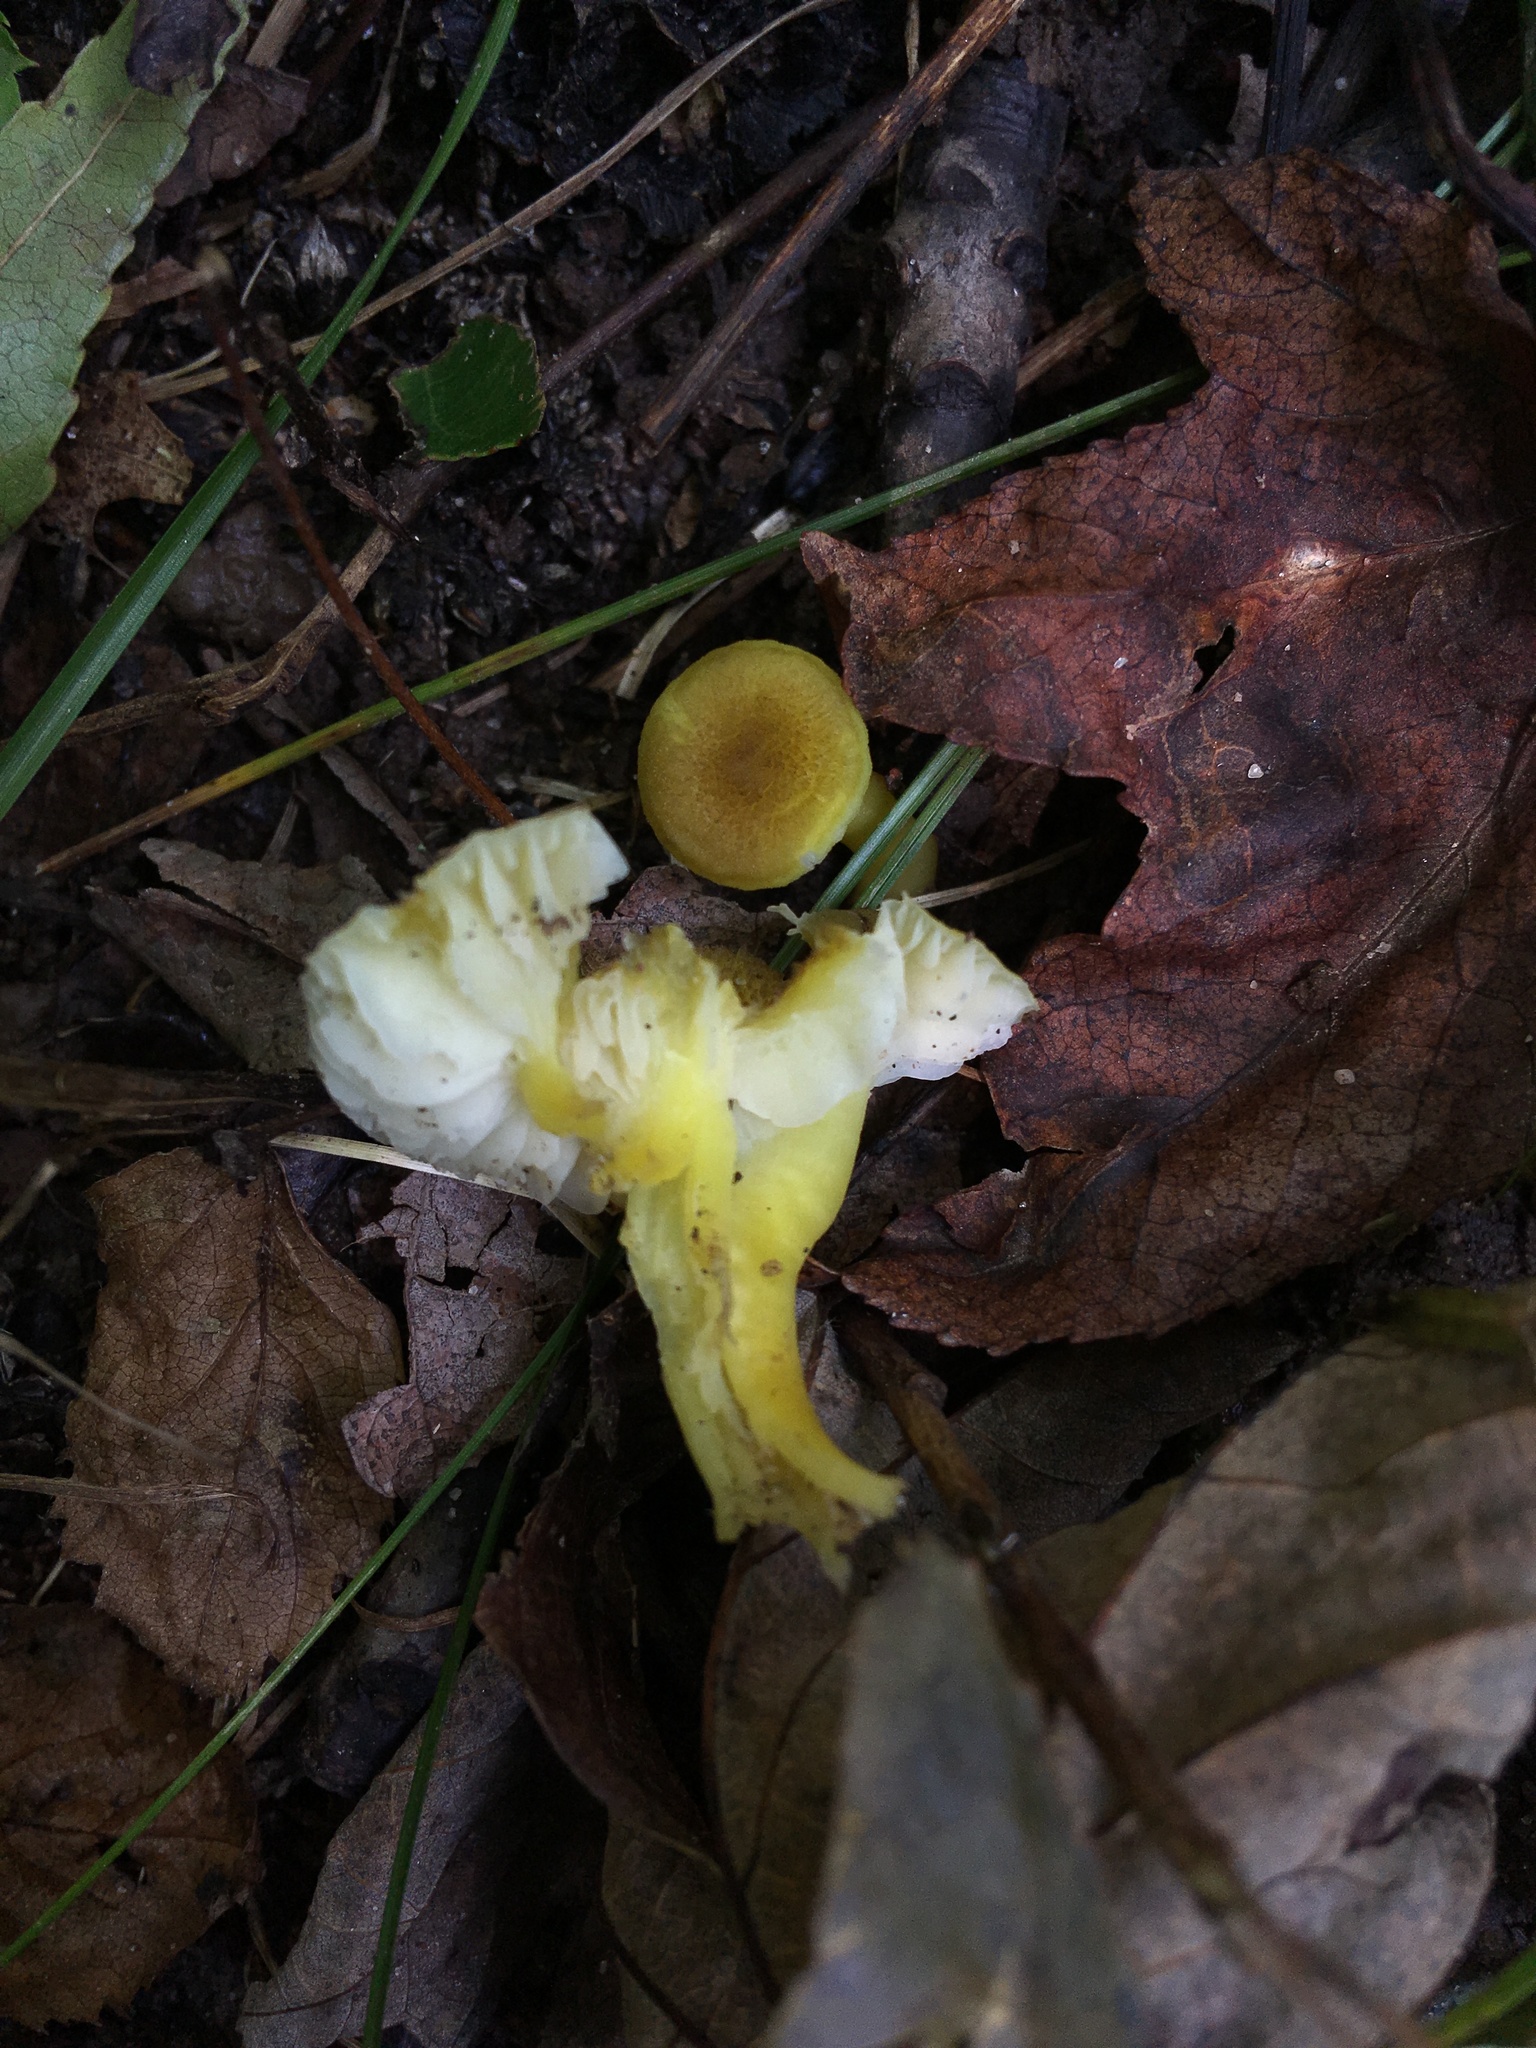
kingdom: Fungi
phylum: Basidiomycota
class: Agaricomycetes
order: Agaricales
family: Hygrophoraceae
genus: Hygrocybe
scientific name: Hygrocybe caespitosa
